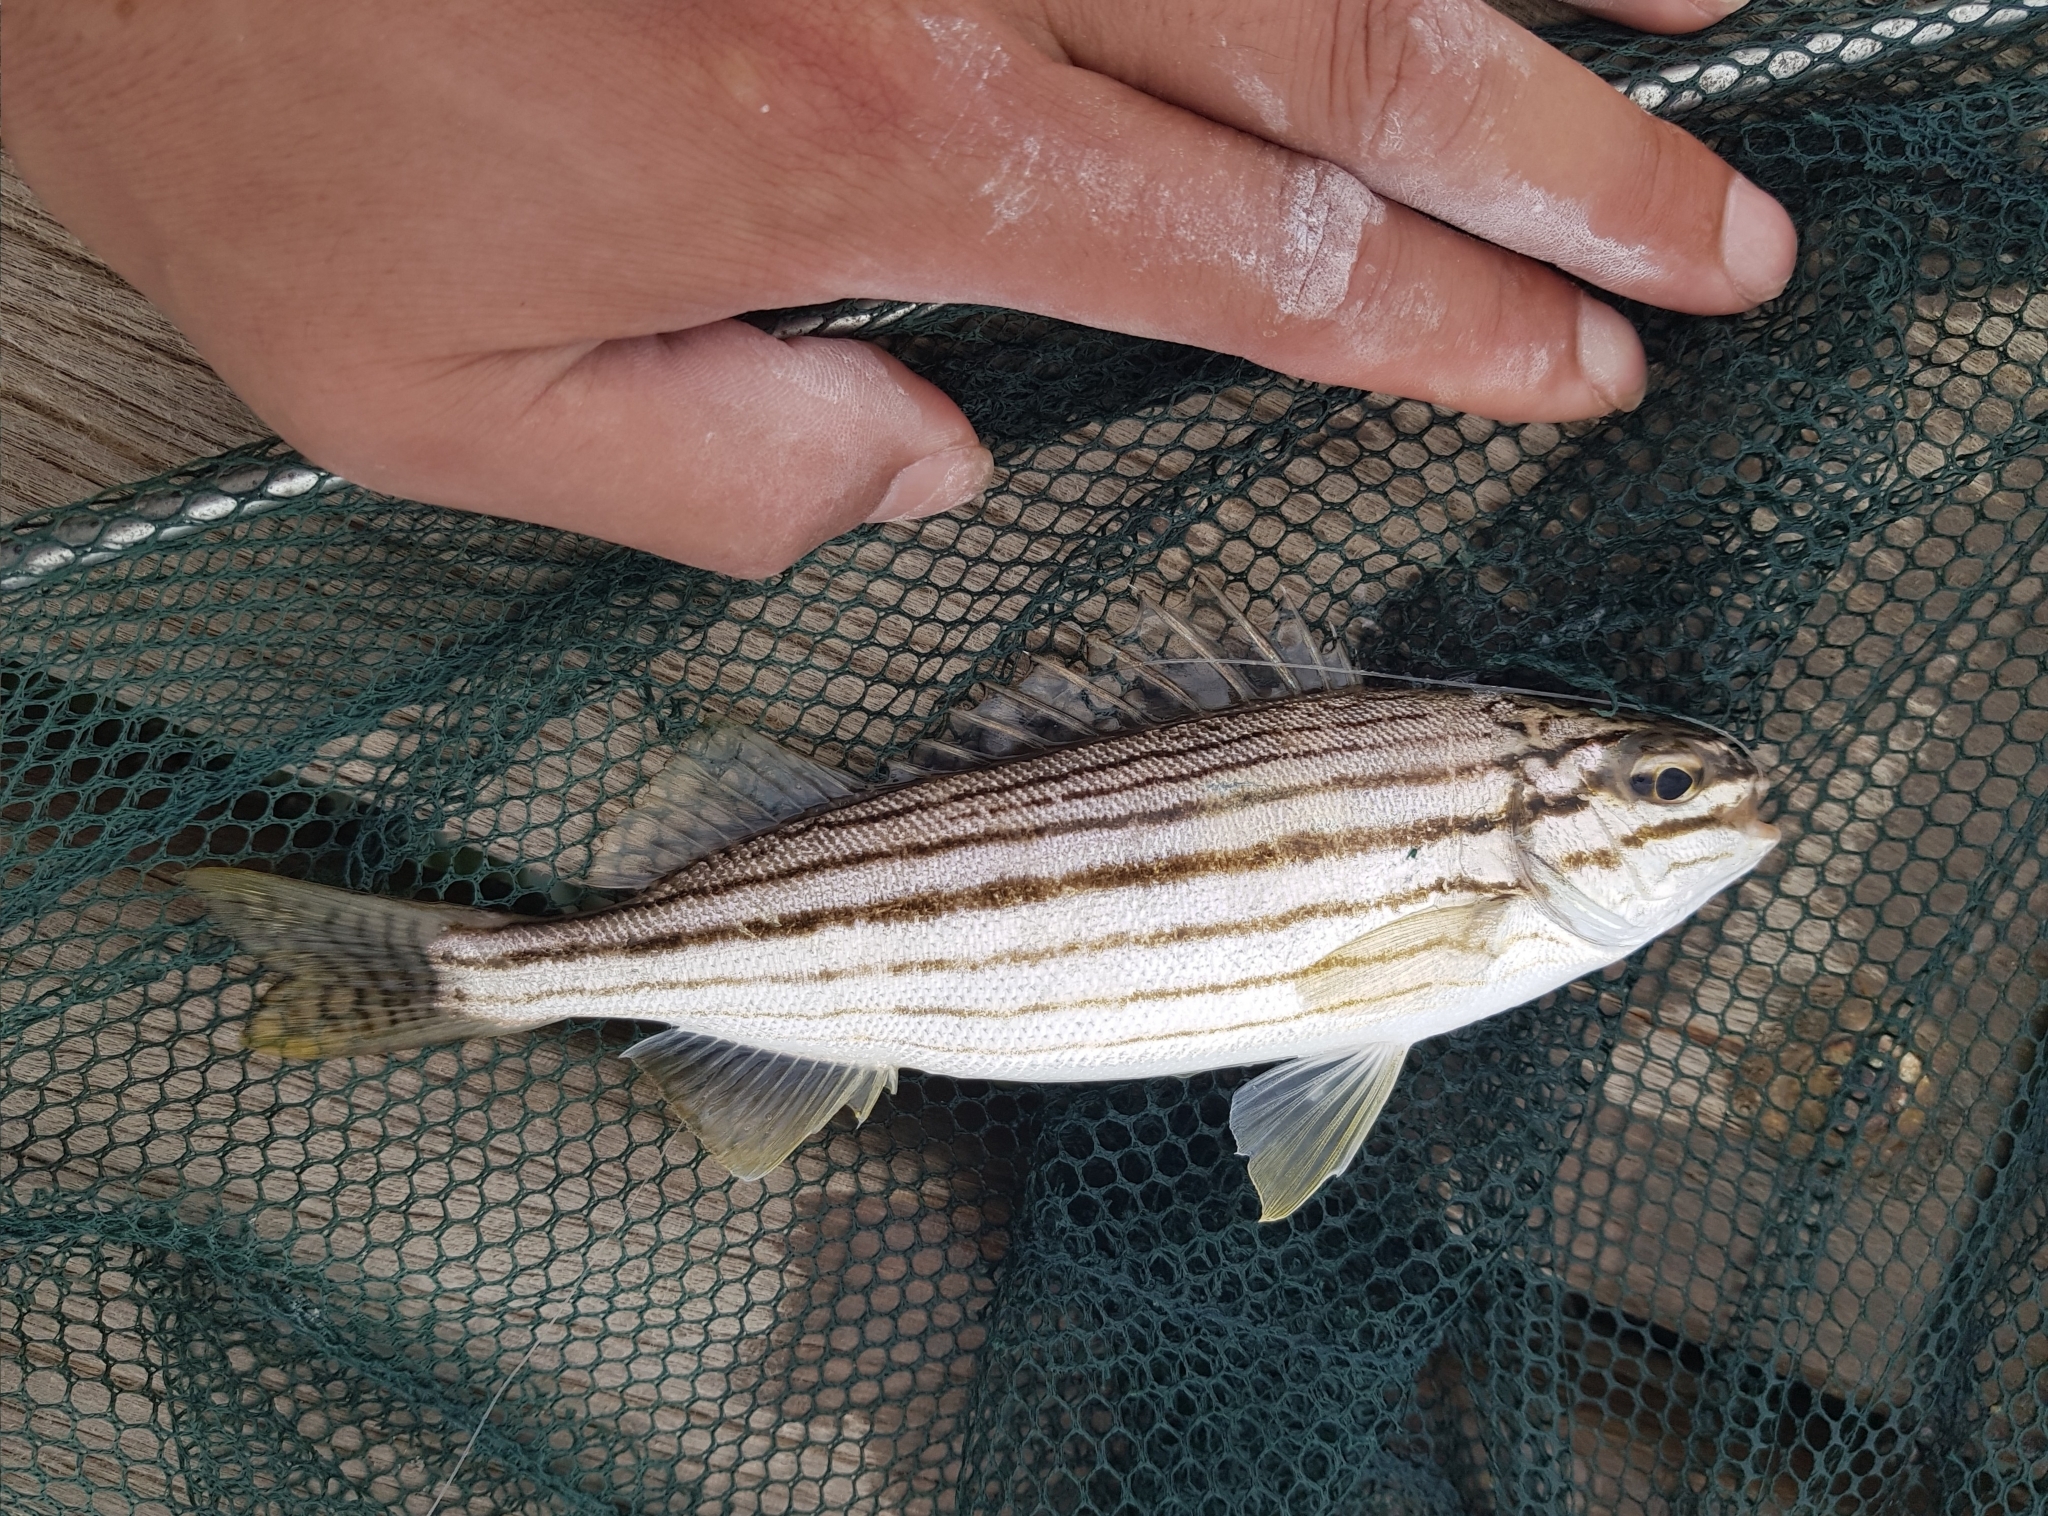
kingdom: Animalia
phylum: Chordata
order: Perciformes
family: Terapontidae
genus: Pelates
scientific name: Pelates octolineatus
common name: Eight-lined trumpeter
